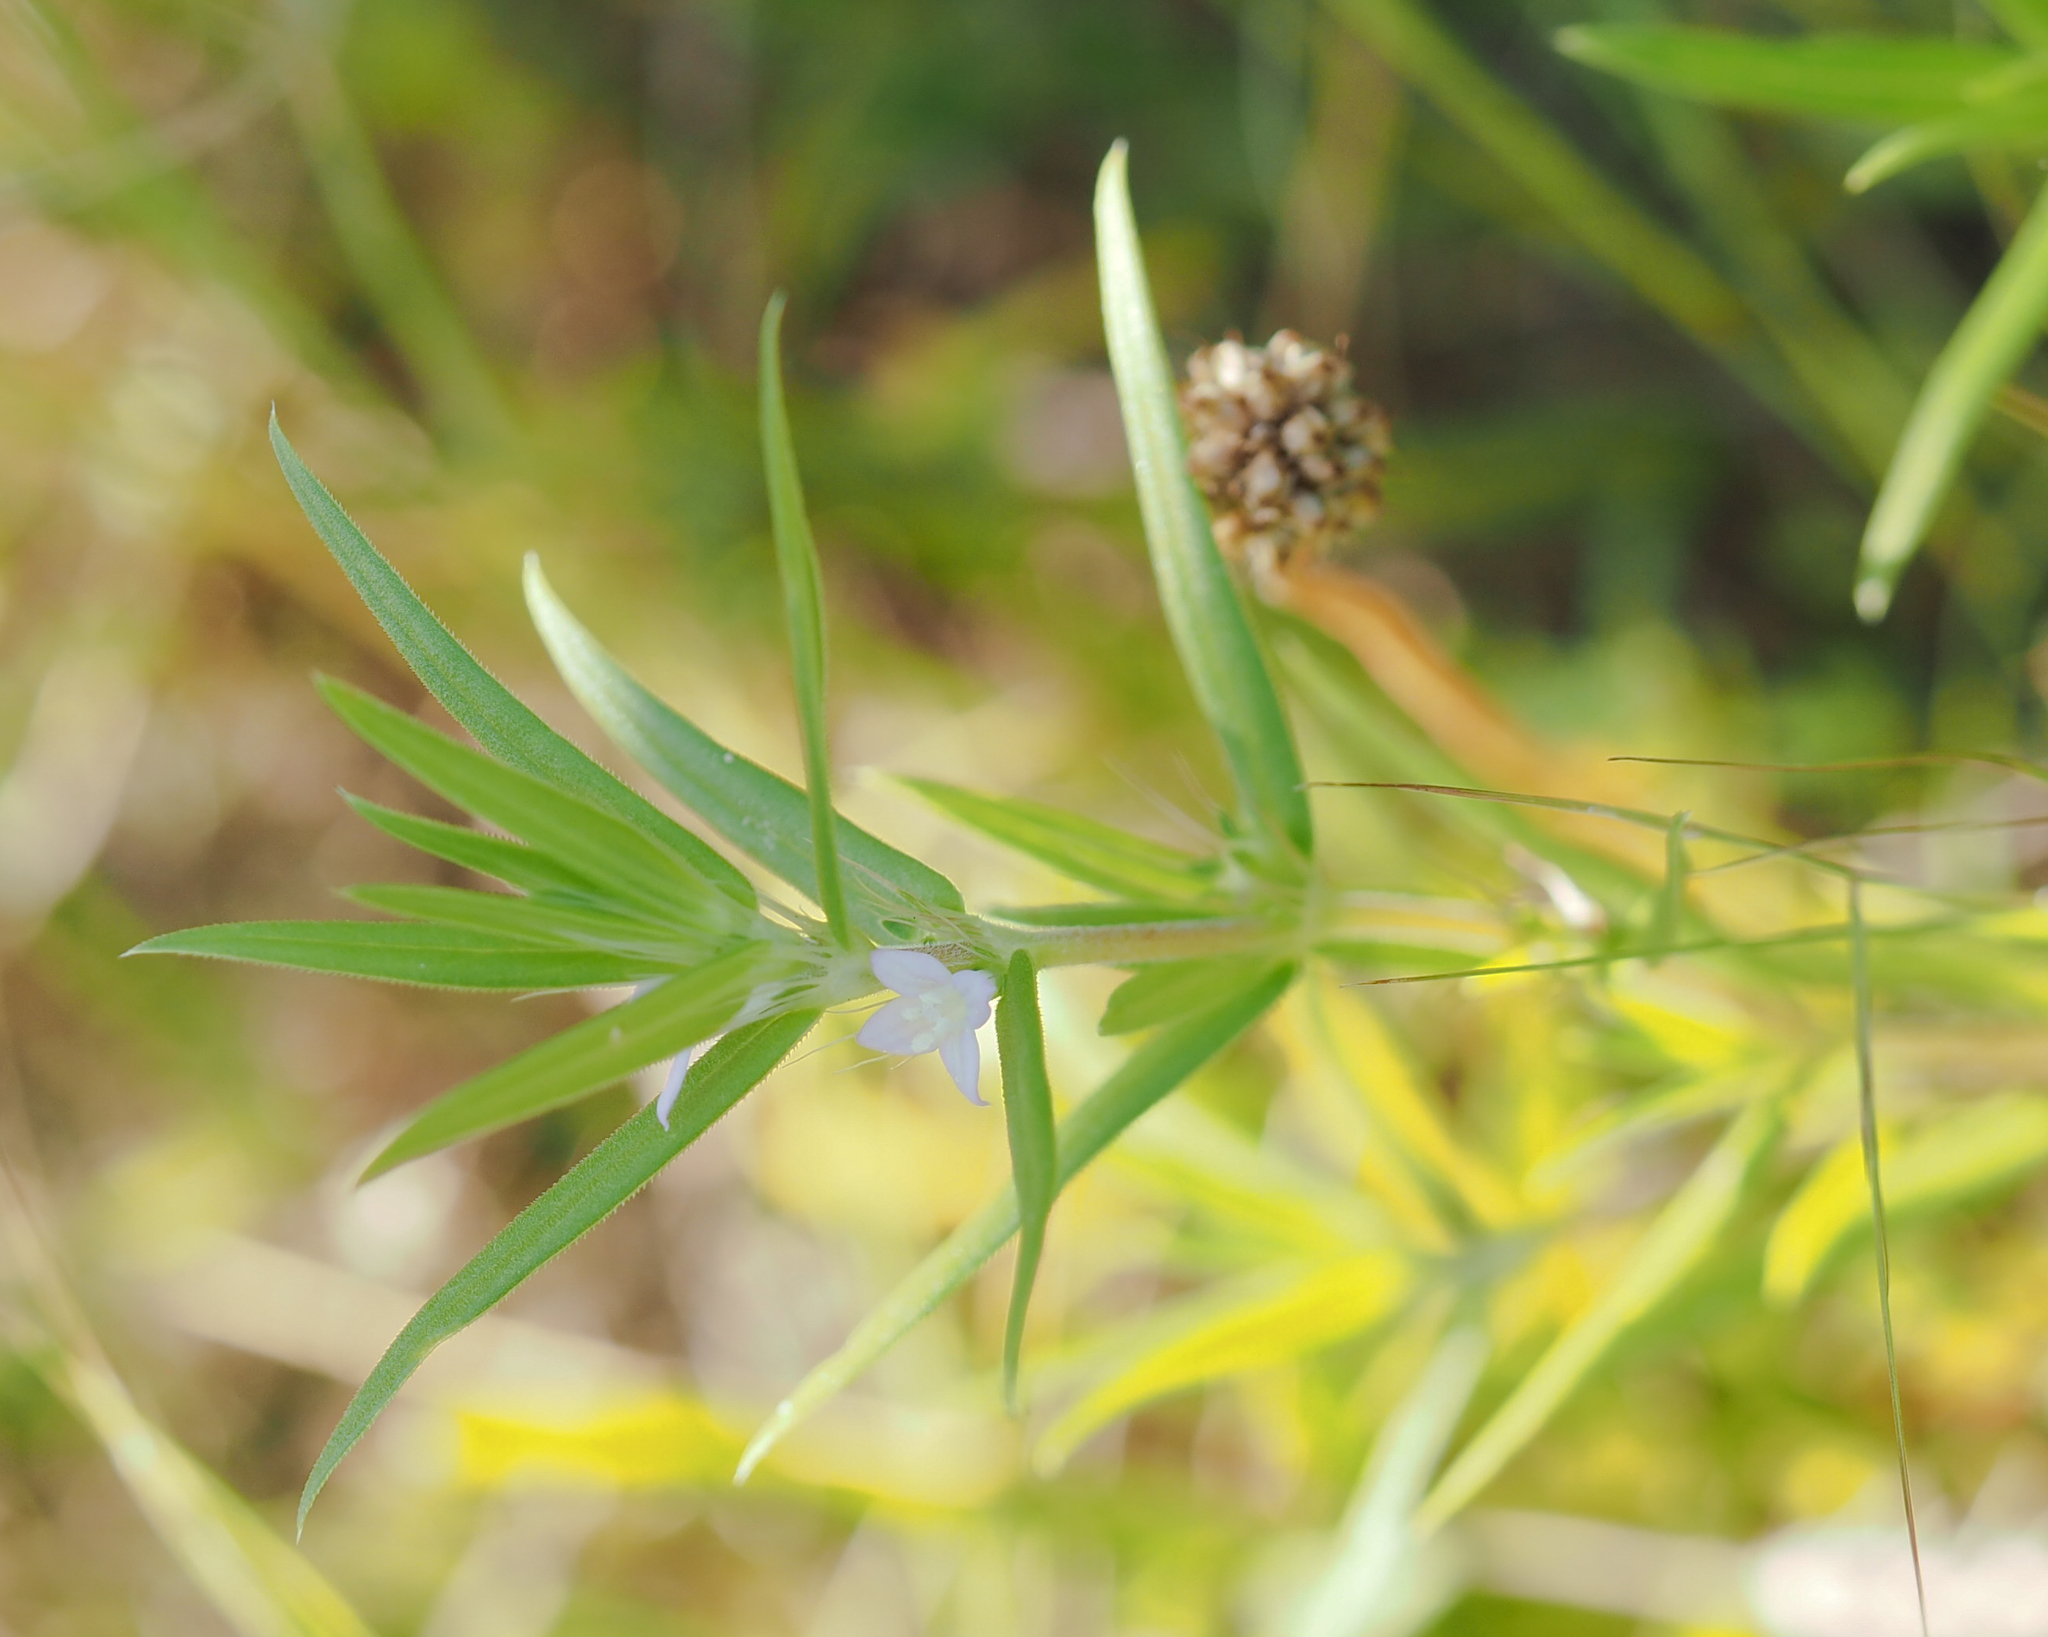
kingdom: Plantae
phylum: Tracheophyta
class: Magnoliopsida
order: Gentianales
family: Rubiaceae
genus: Hexasepalum
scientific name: Hexasepalum teres
